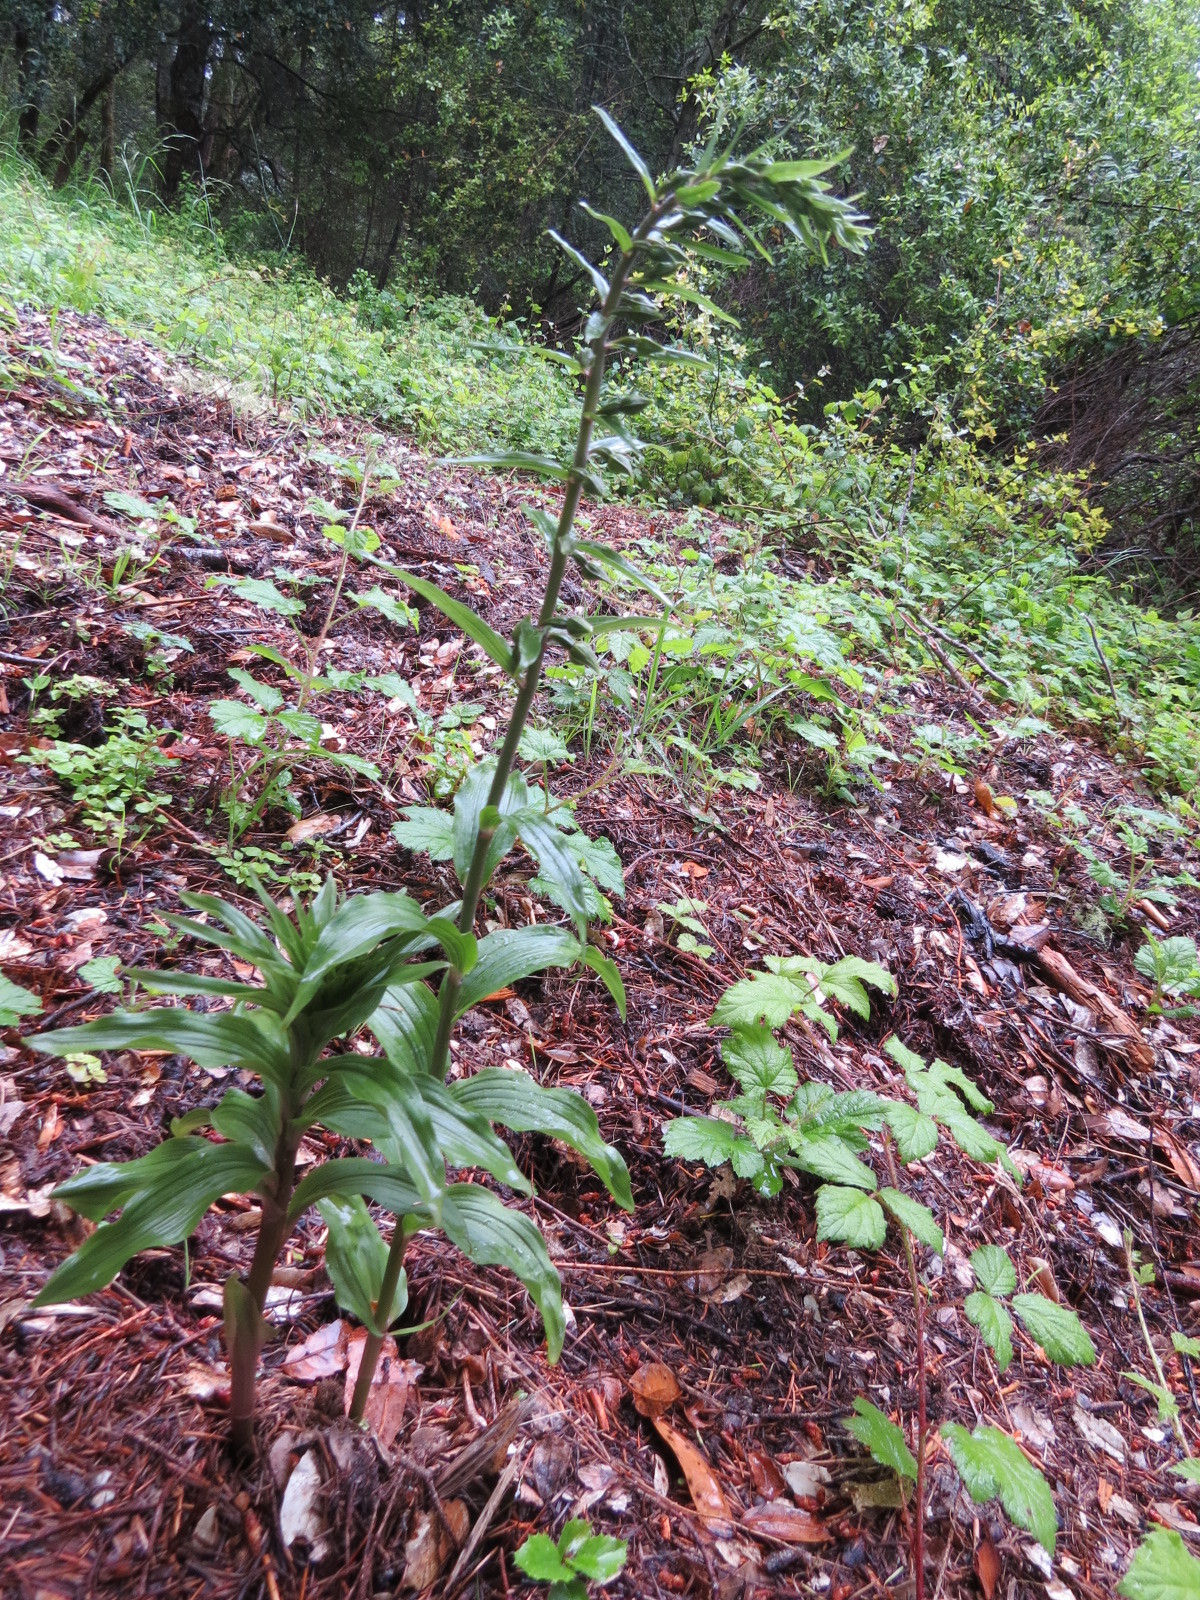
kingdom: Plantae
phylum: Tracheophyta
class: Liliopsida
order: Asparagales
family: Orchidaceae
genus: Epipactis
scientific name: Epipactis helleborine
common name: Broad-leaved helleborine
